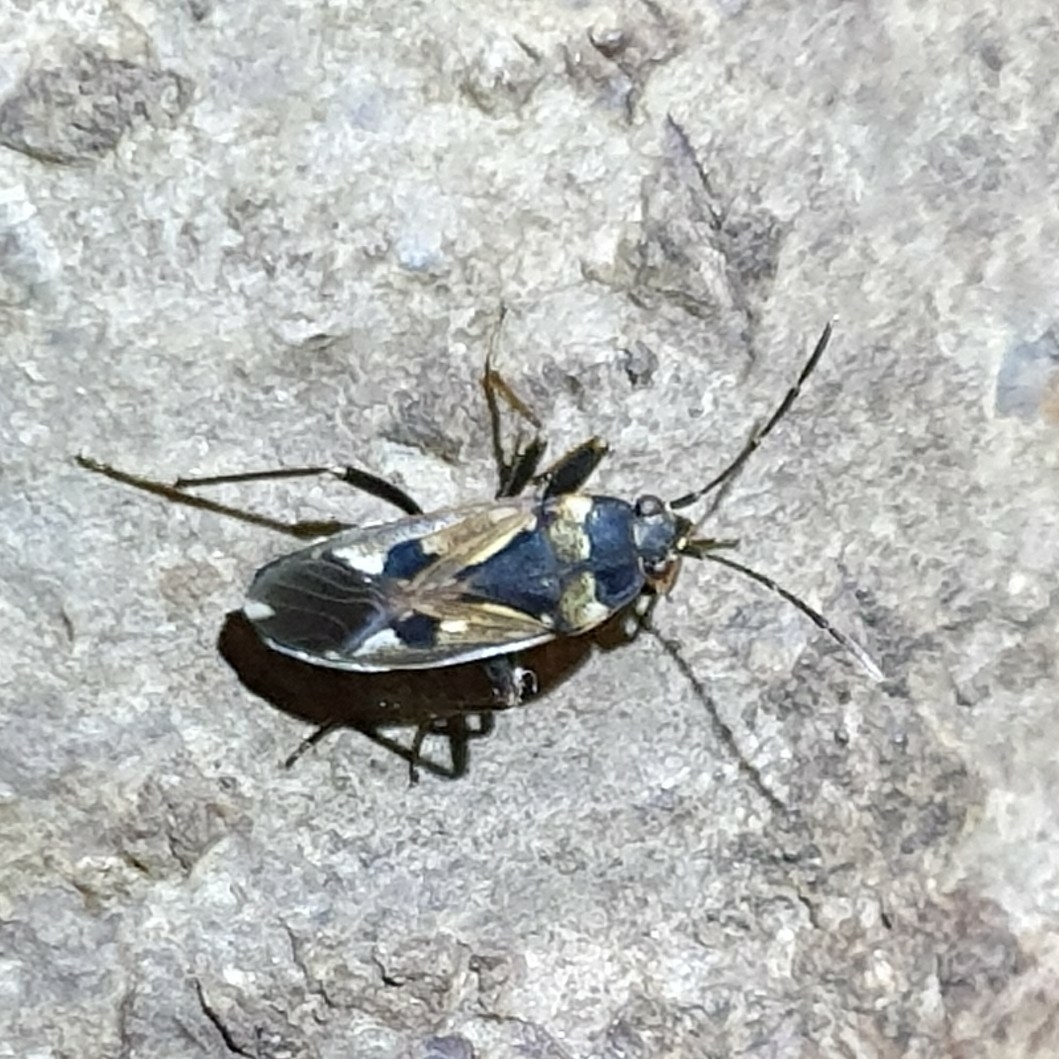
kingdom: Animalia
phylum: Arthropoda
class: Insecta
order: Hemiptera
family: Rhyparochromidae
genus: Rhyparochromus
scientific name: Rhyparochromus vulgaris
